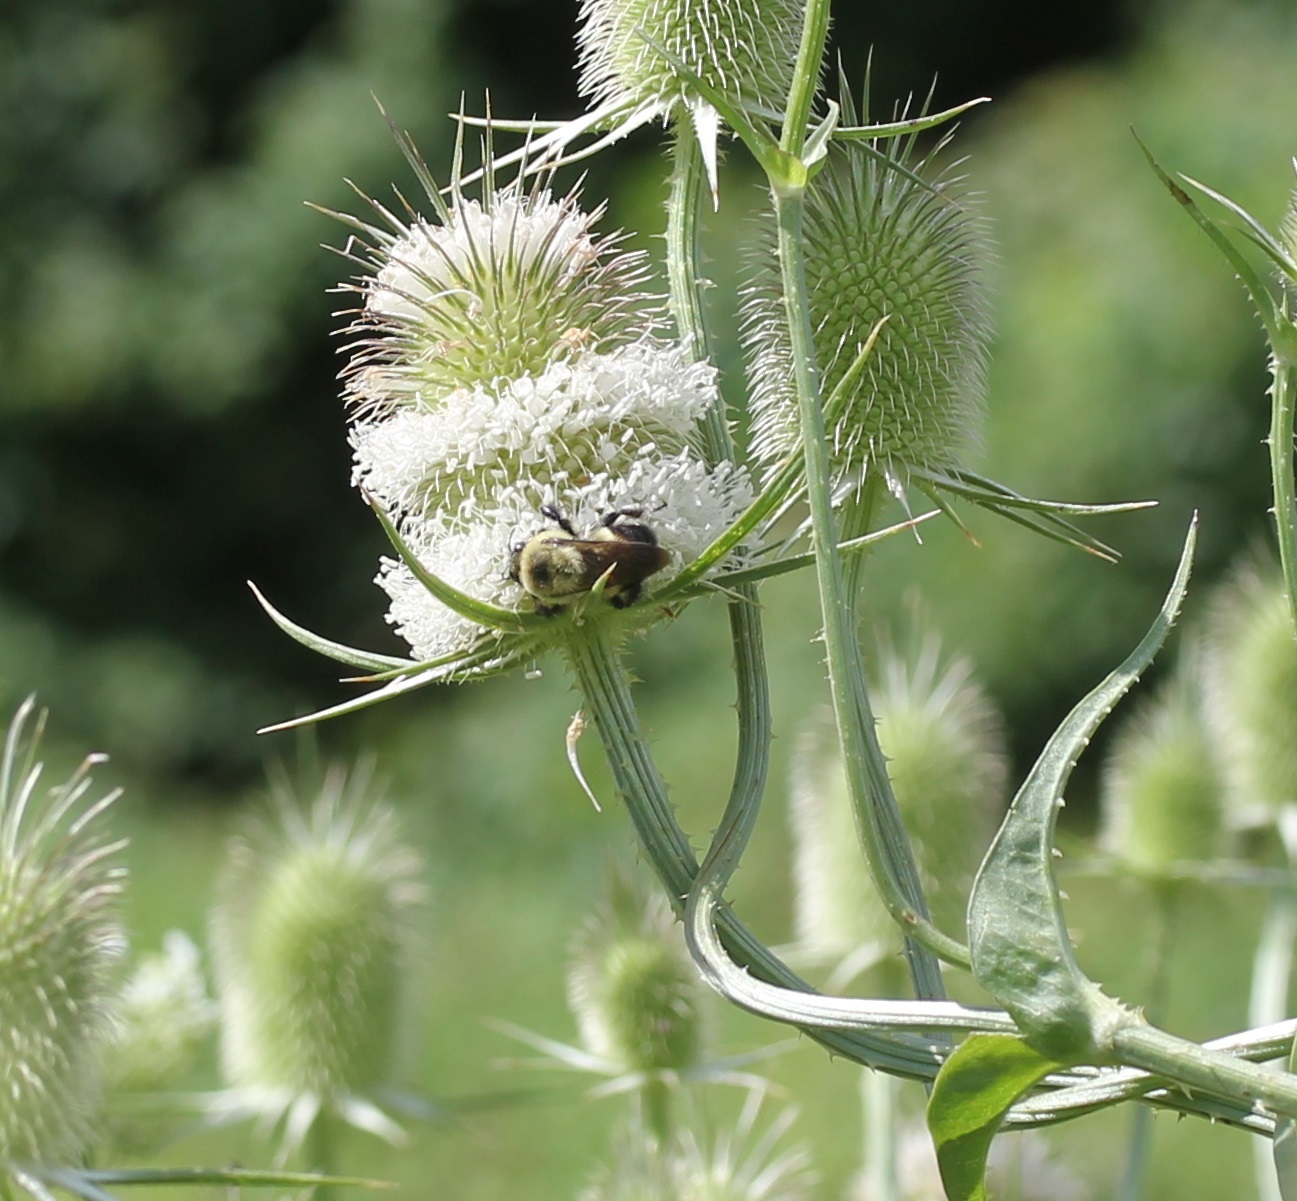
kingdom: Animalia
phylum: Arthropoda
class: Insecta
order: Hymenoptera
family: Apidae
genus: Bombus
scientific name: Bombus griseocollis
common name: Brown-belted bumble bee
